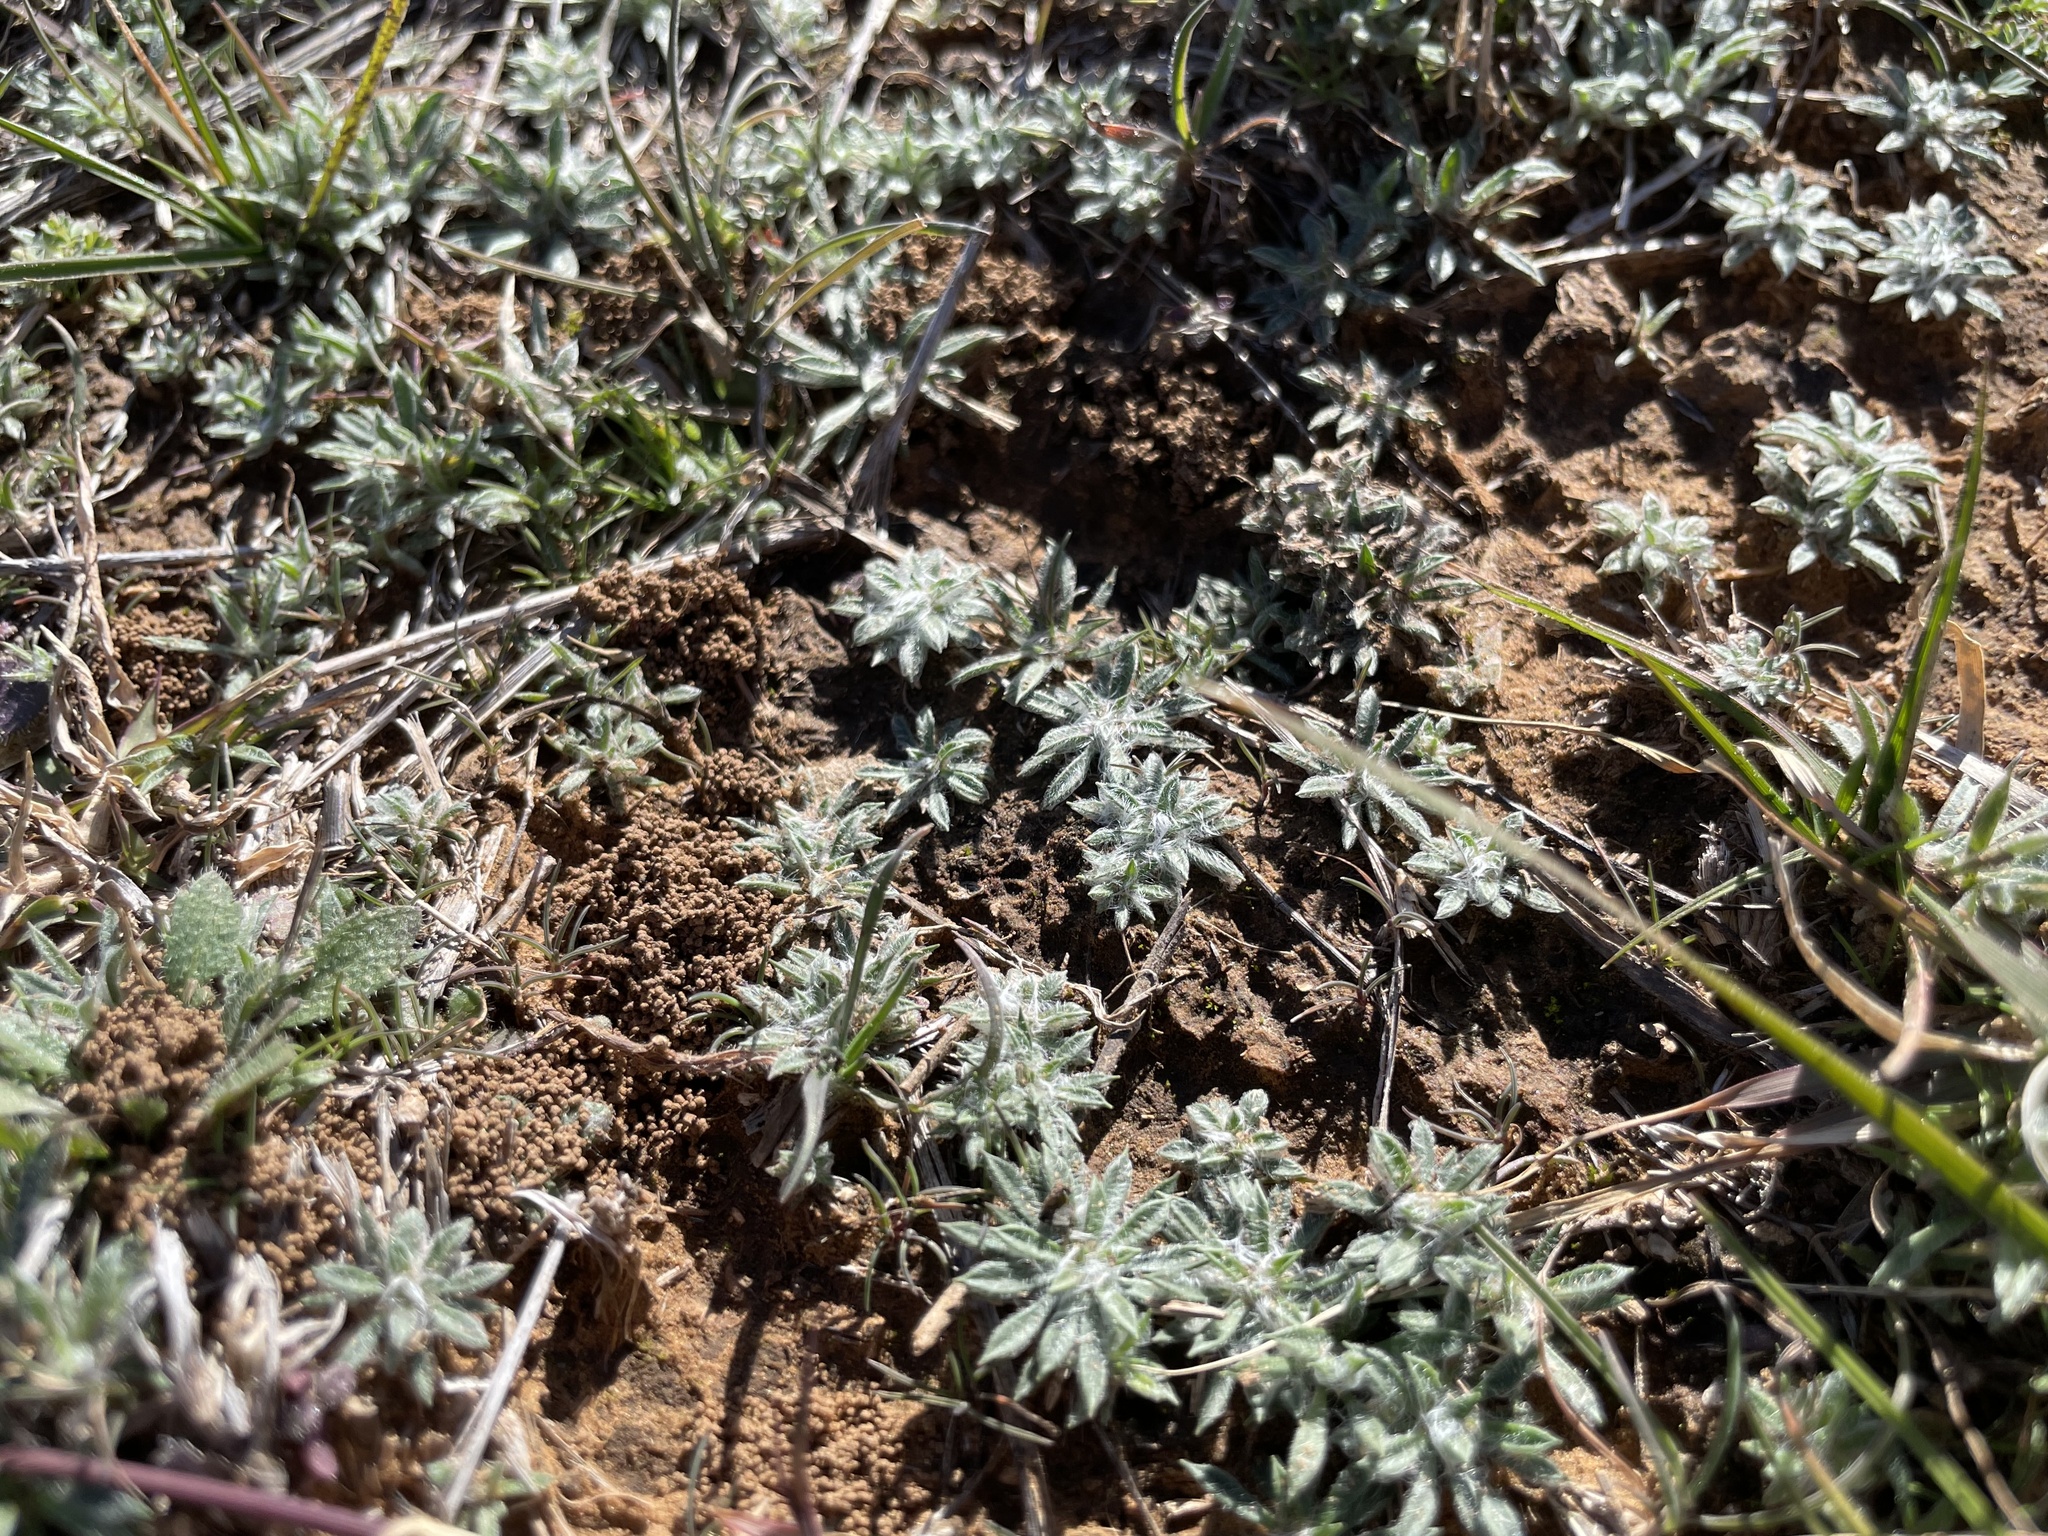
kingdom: Plantae
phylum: Tracheophyta
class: Magnoliopsida
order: Asterales
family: Asteraceae
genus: Diaperia
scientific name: Diaperia prolifera
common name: Big-head rabbit-tobacco
